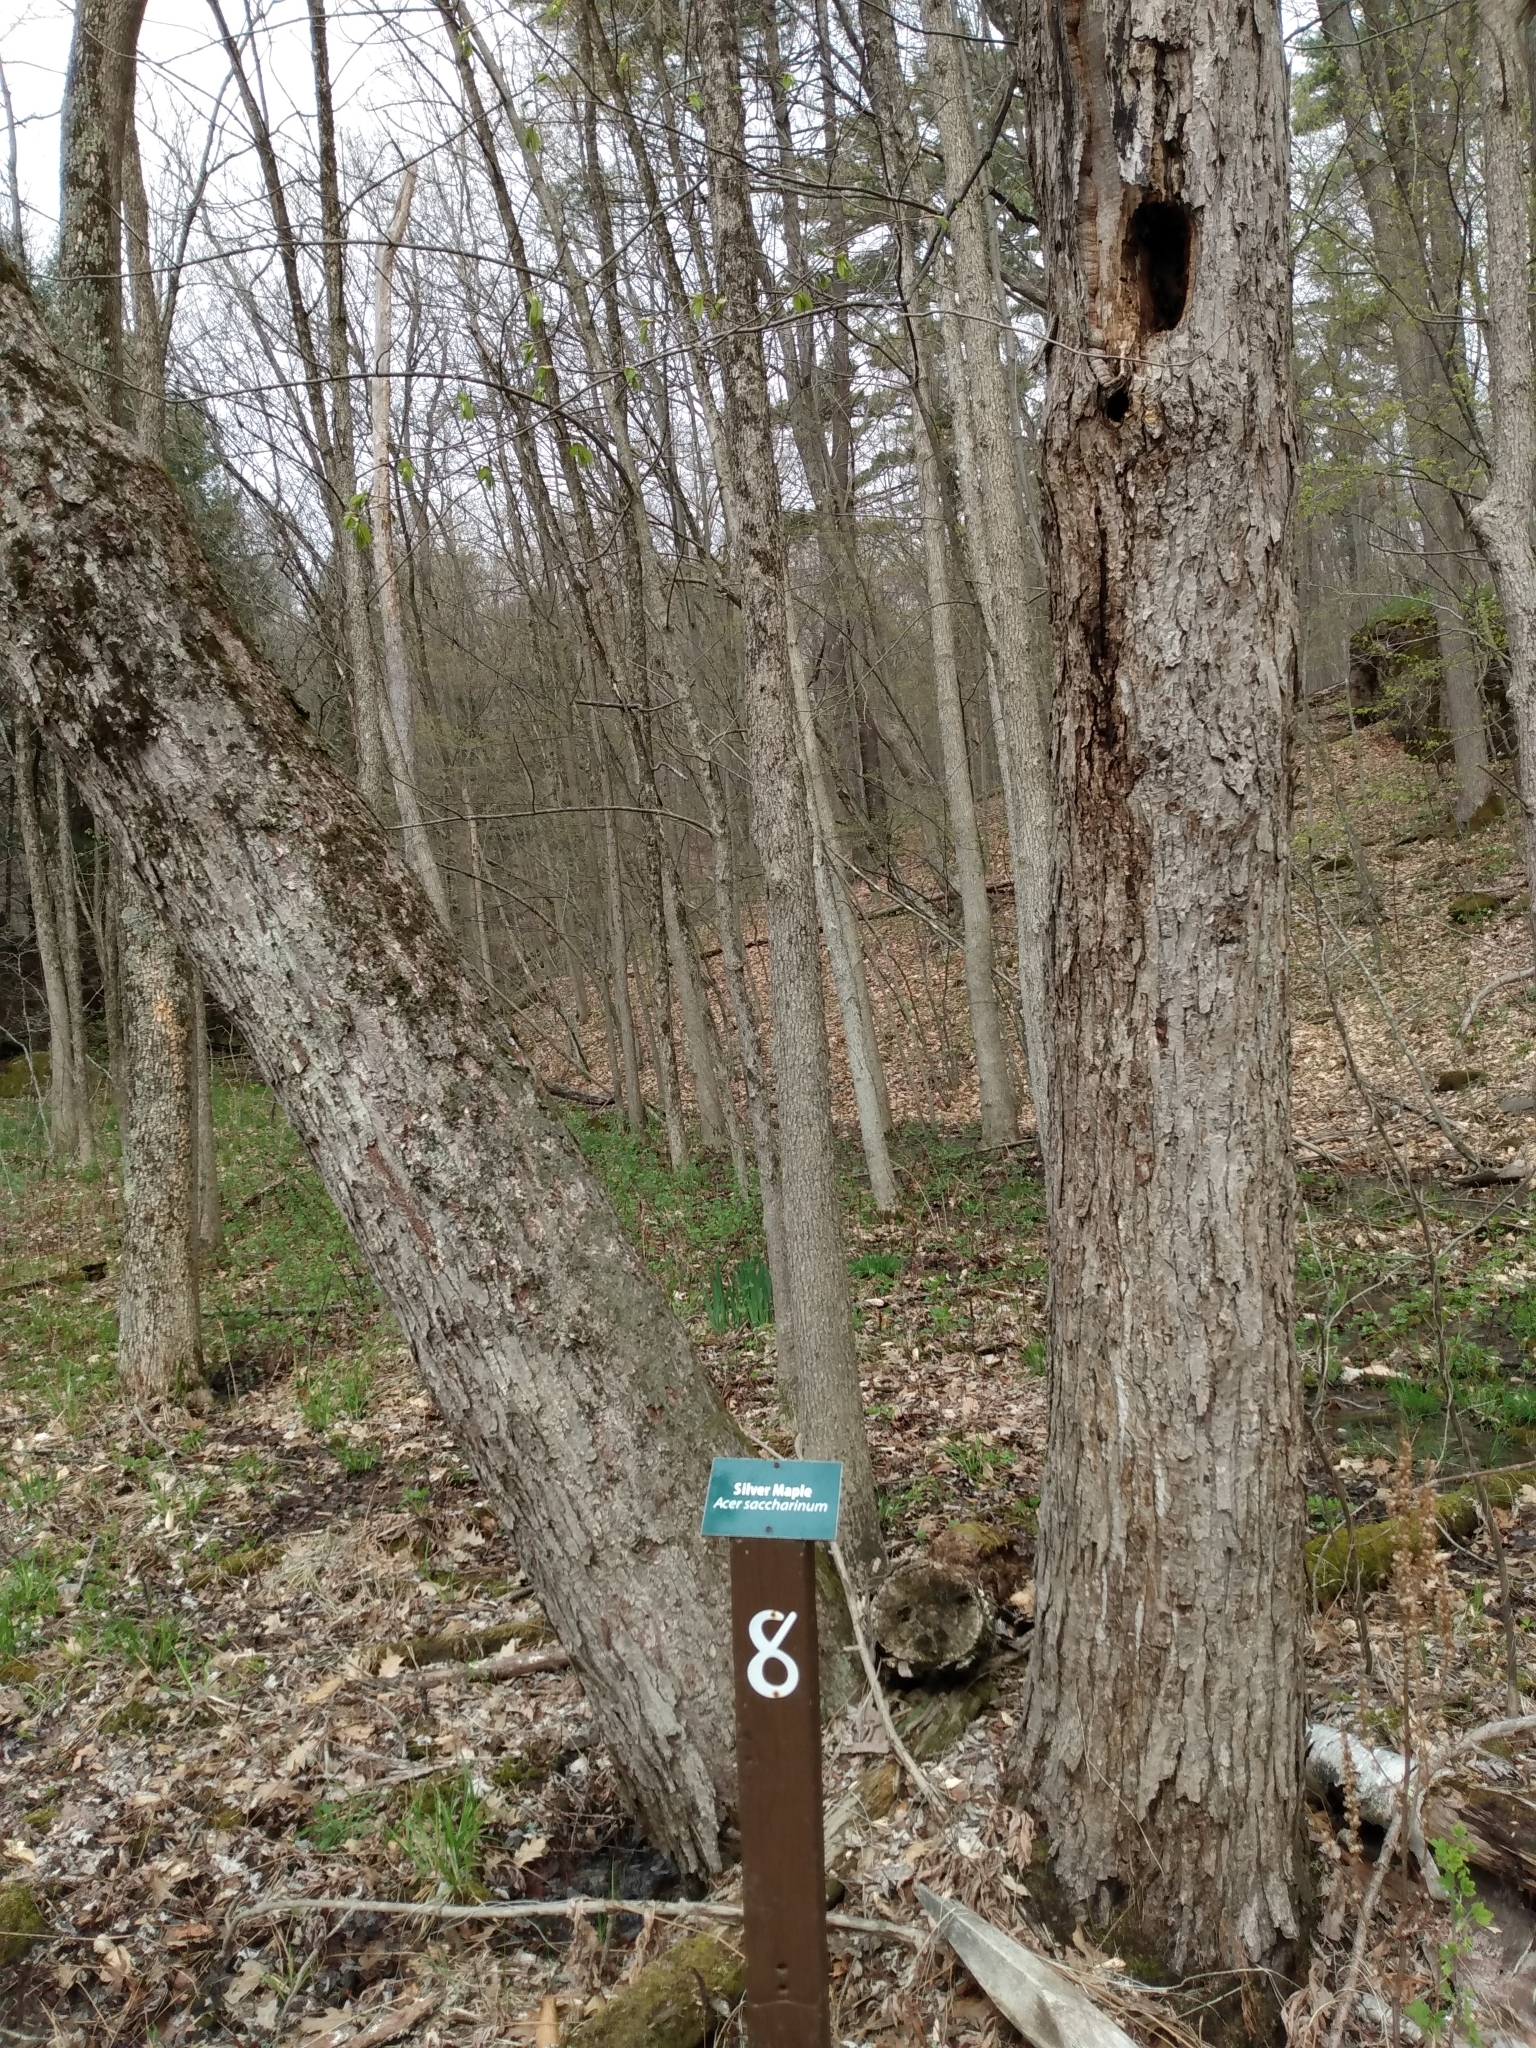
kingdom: Plantae
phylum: Tracheophyta
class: Magnoliopsida
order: Sapindales
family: Sapindaceae
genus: Acer
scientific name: Acer saccharinum
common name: Silver maple
